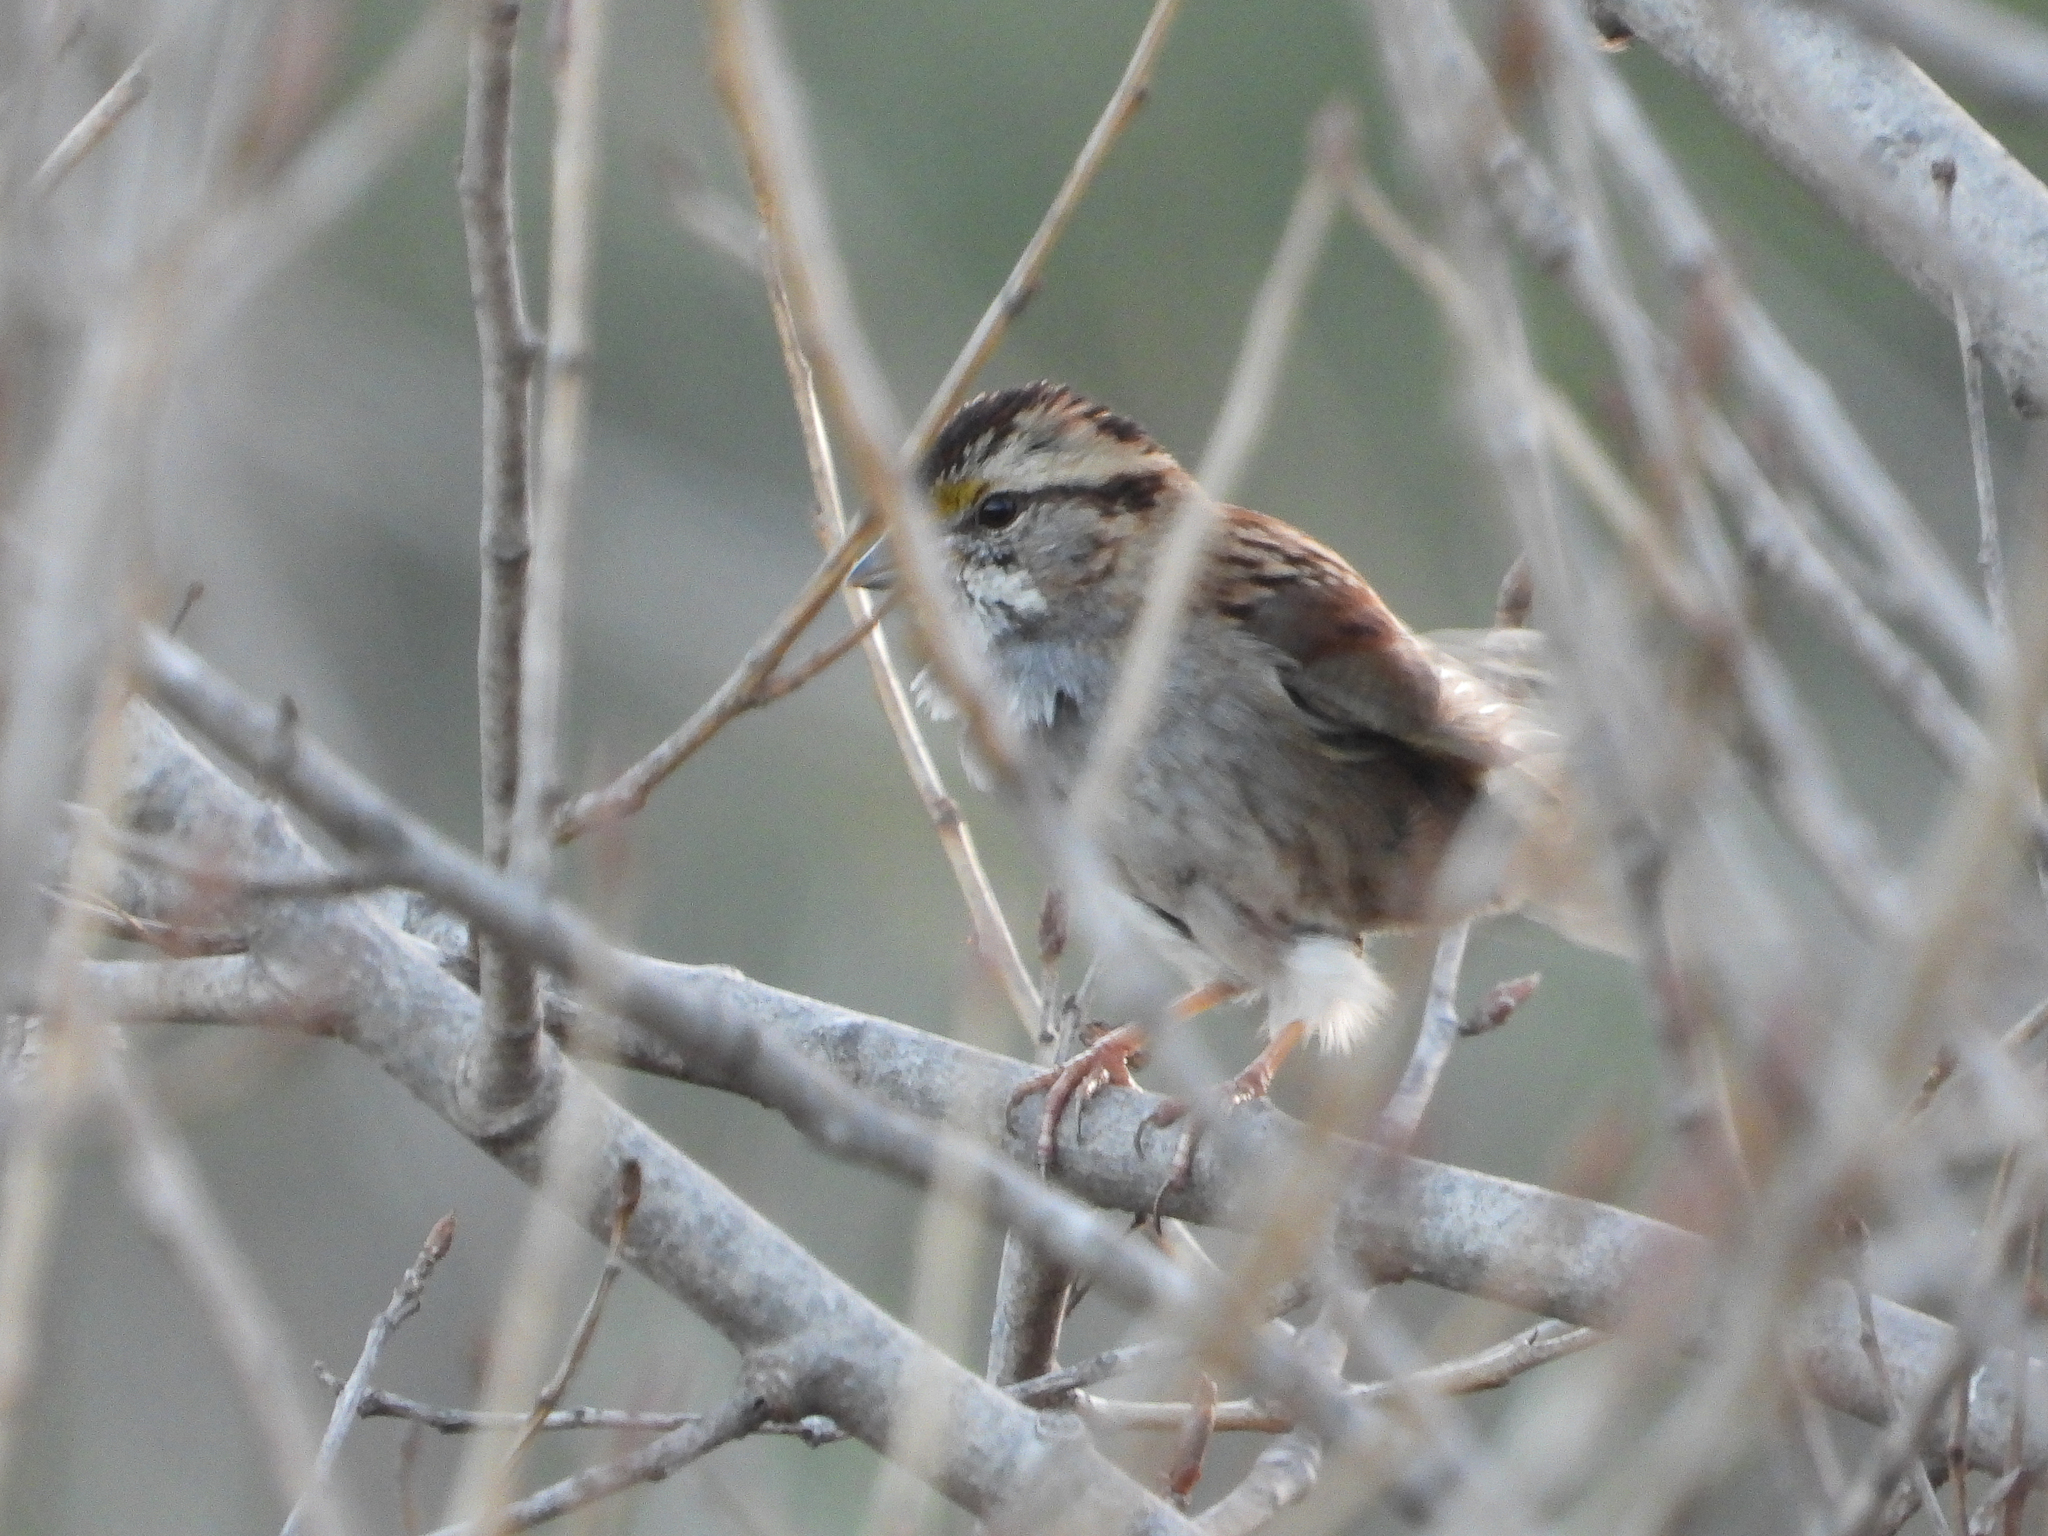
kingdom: Animalia
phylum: Chordata
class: Aves
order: Passeriformes
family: Passerellidae
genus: Zonotrichia
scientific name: Zonotrichia albicollis
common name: White-throated sparrow
